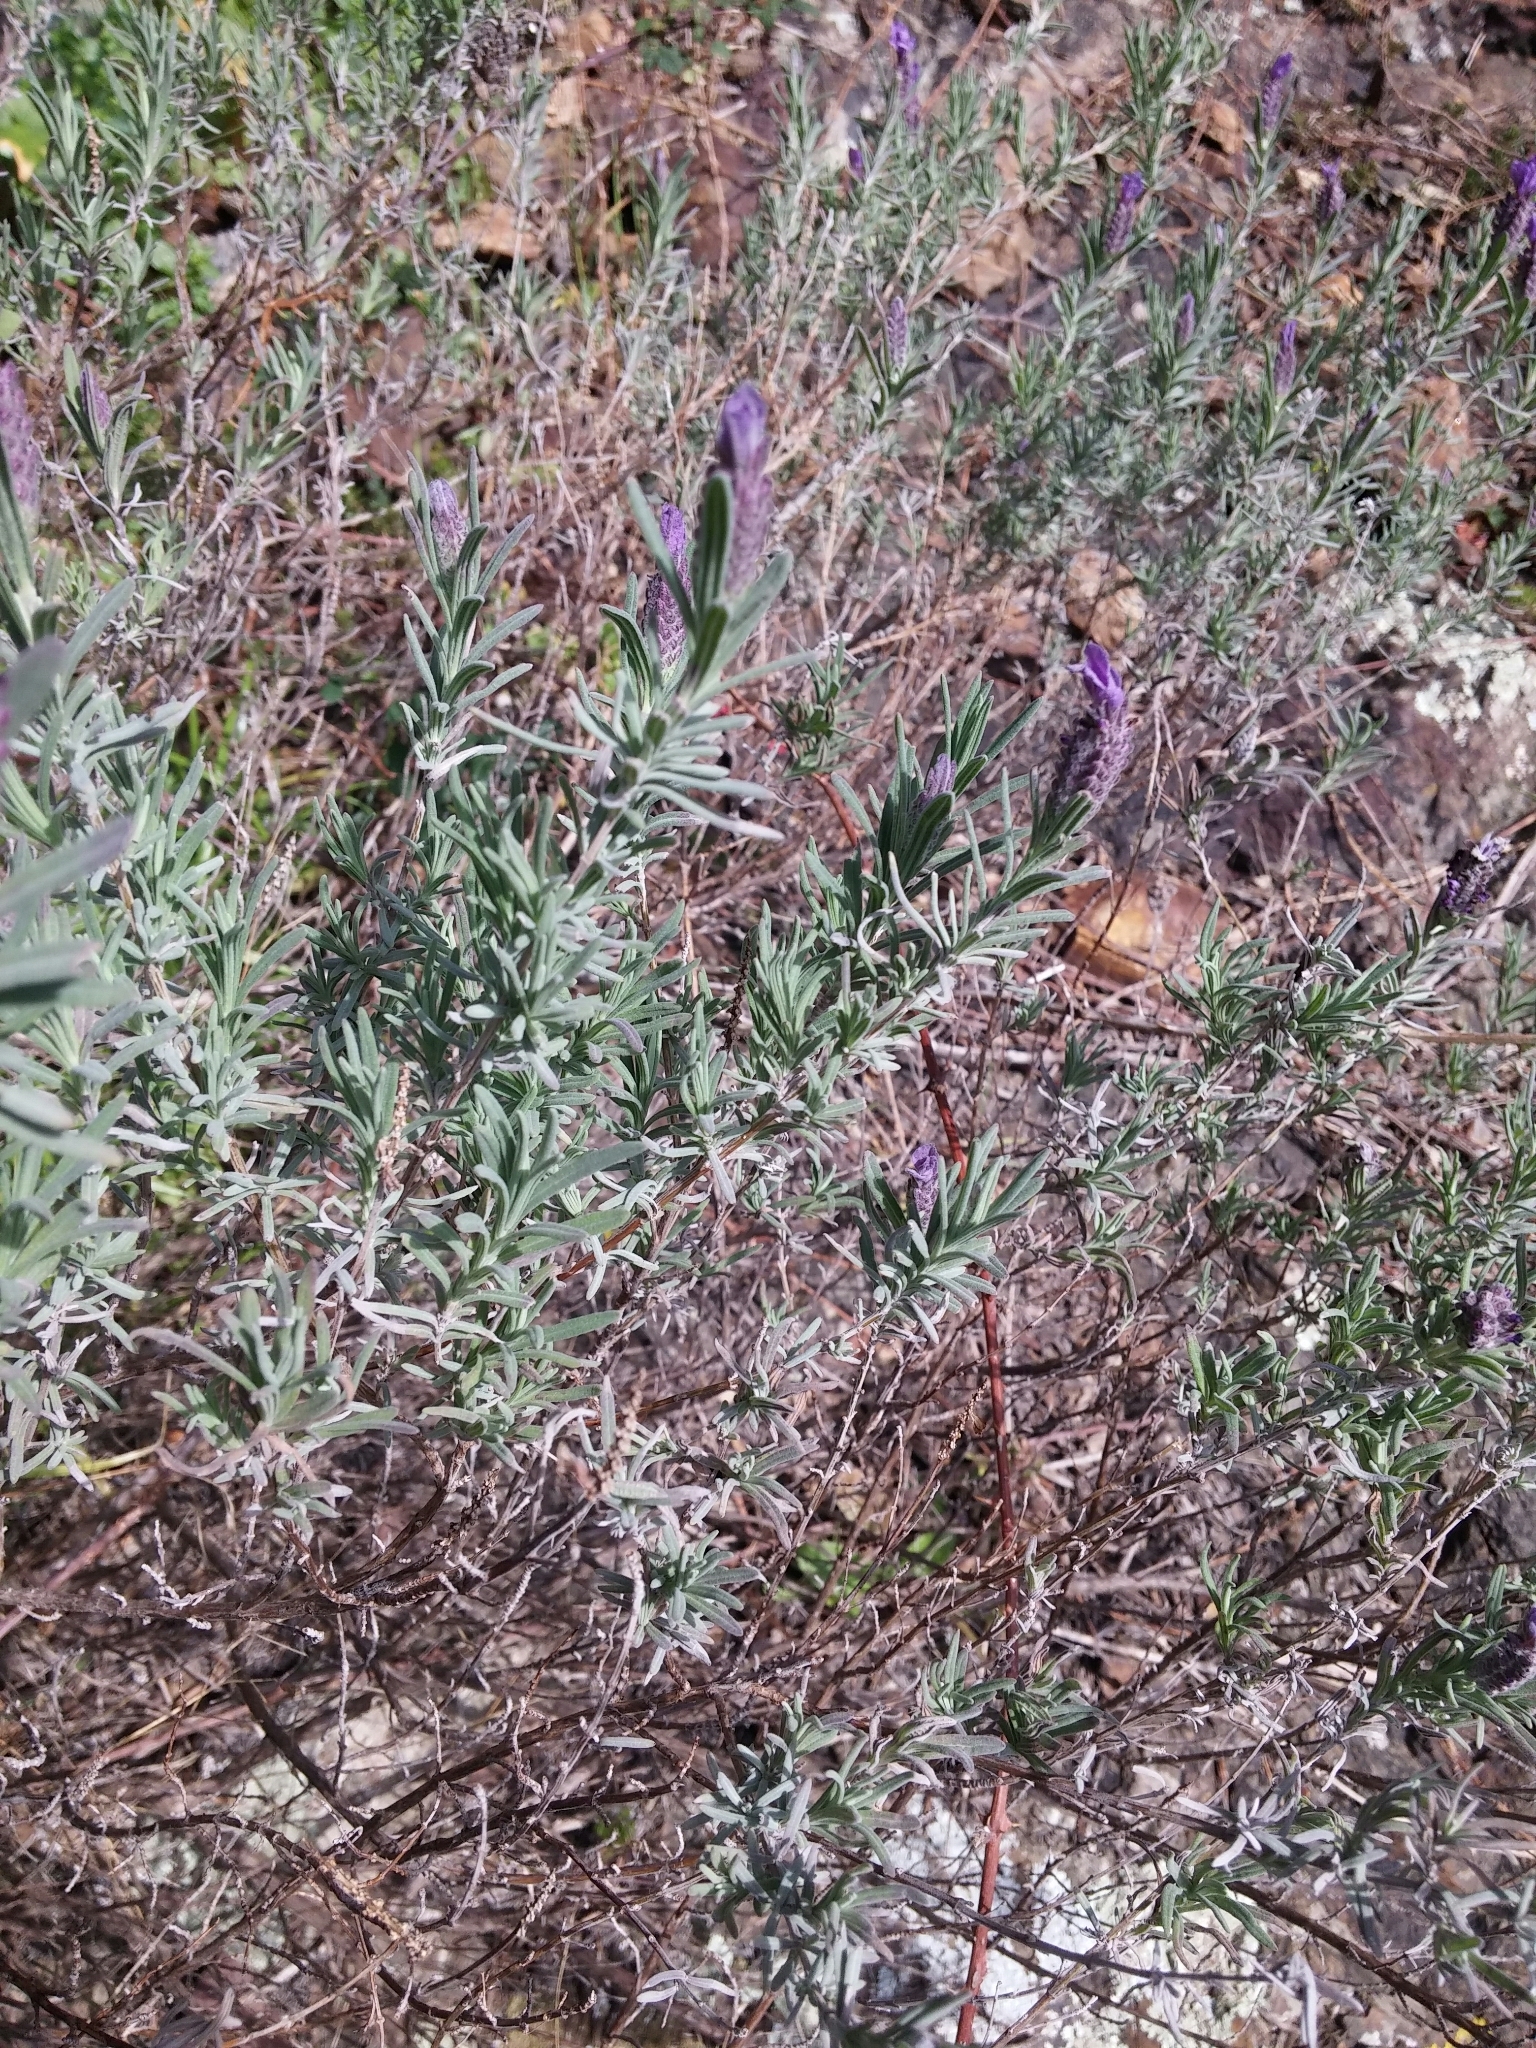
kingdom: Plantae
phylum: Tracheophyta
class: Magnoliopsida
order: Lamiales
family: Lamiaceae
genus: Lavandula
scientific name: Lavandula stoechas
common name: French lavender
